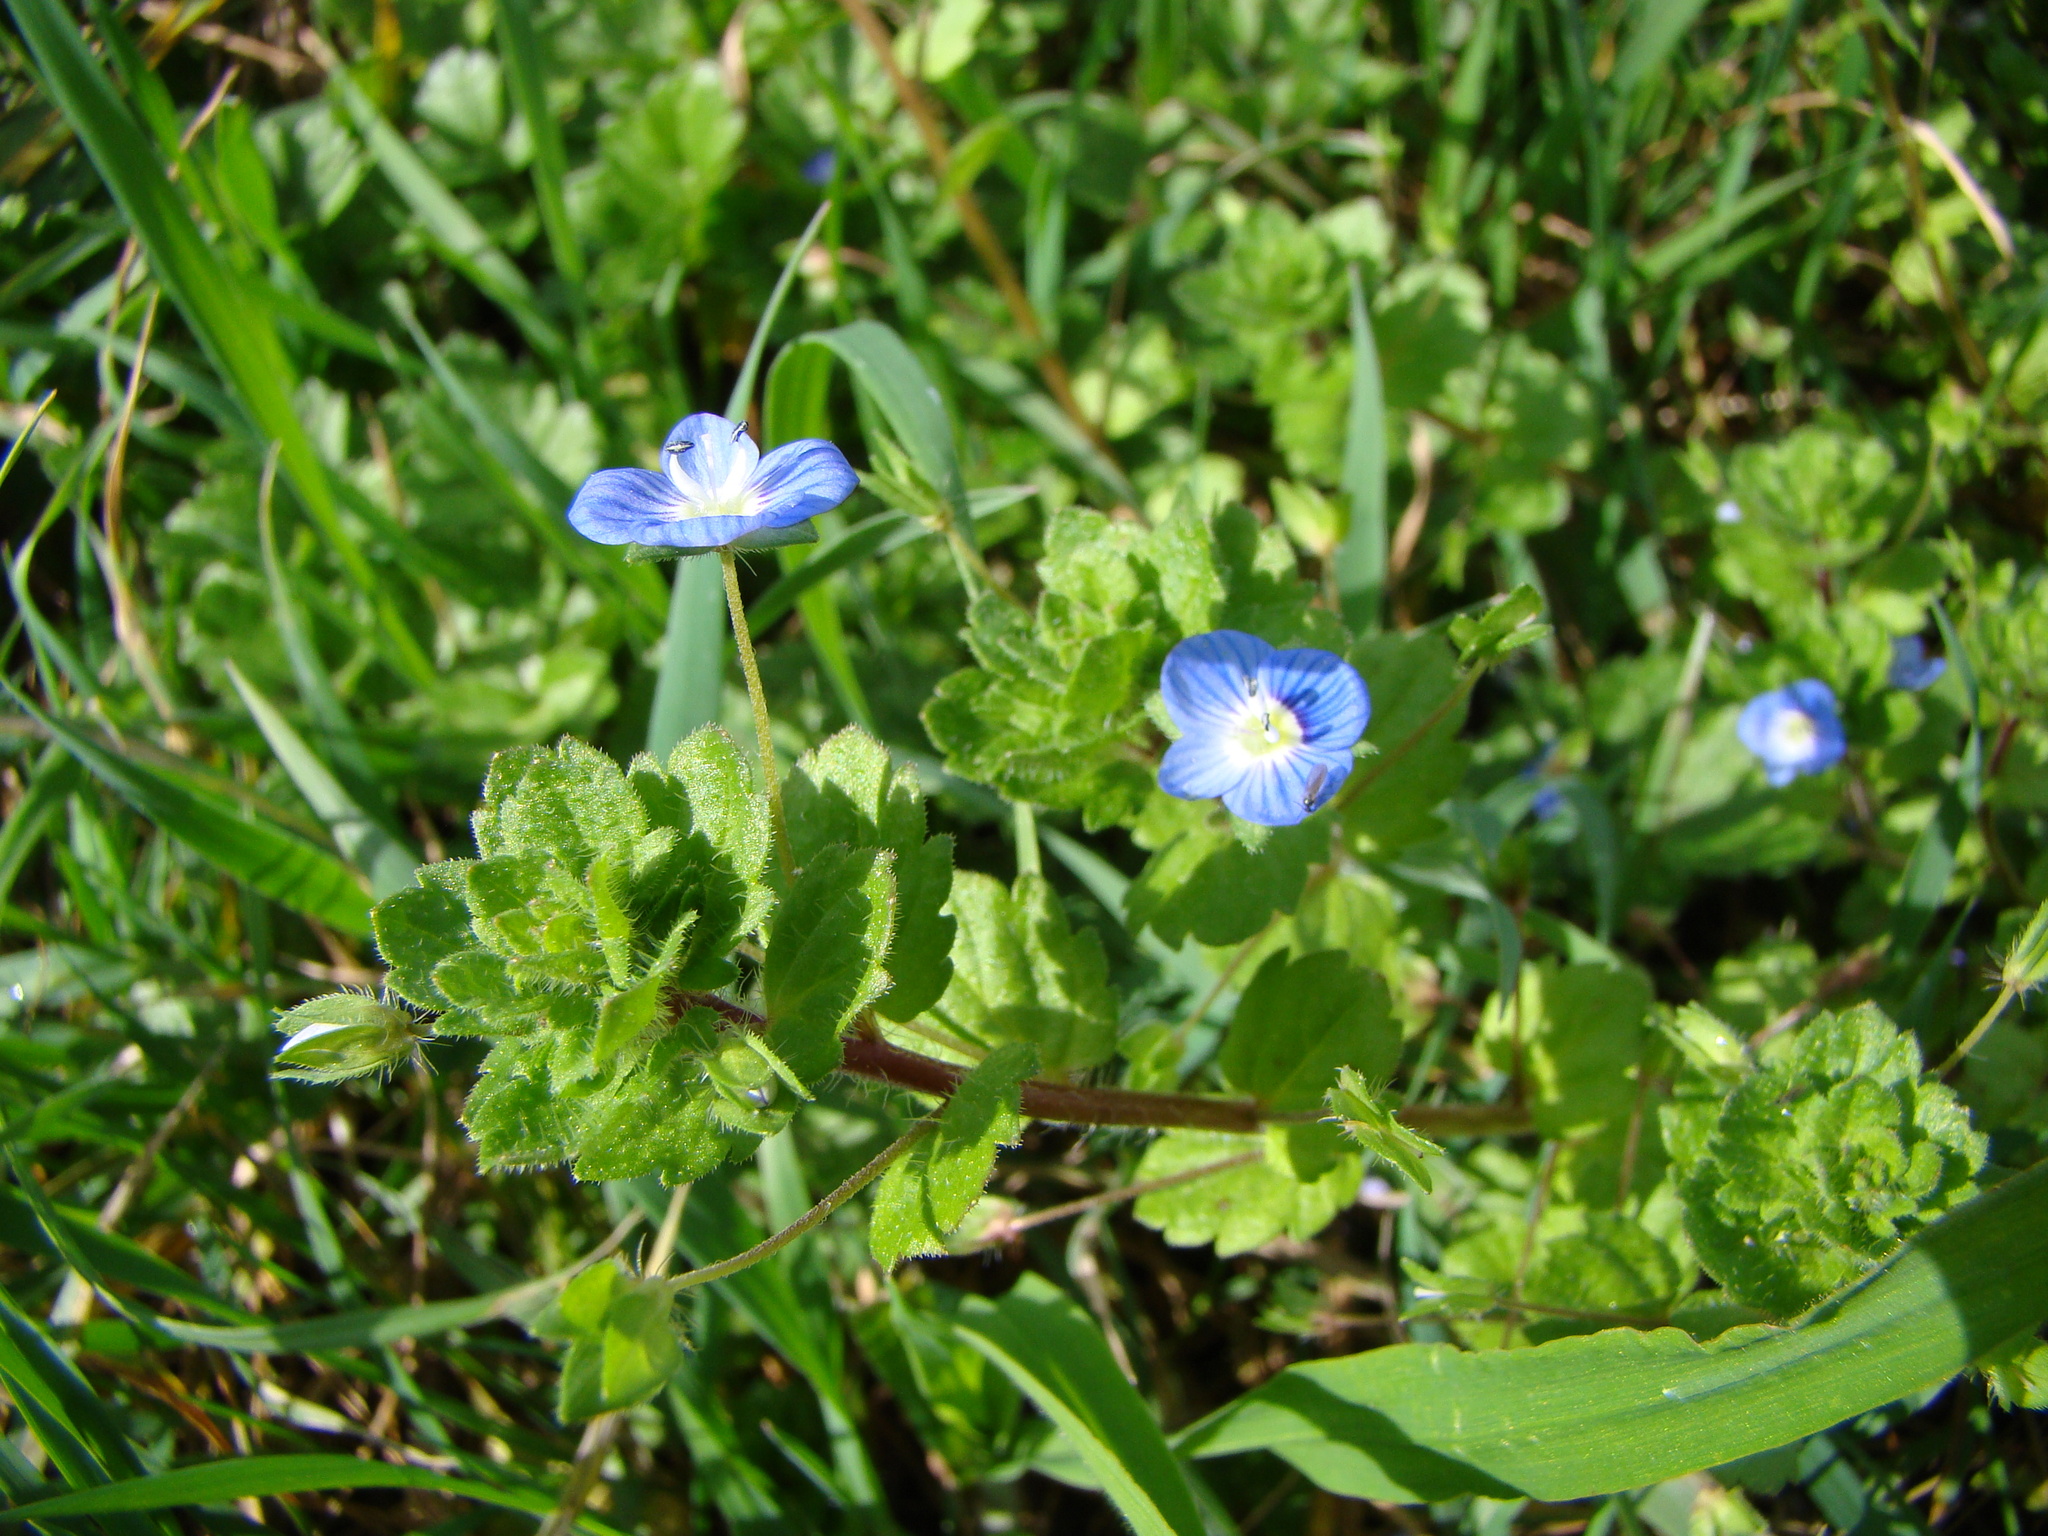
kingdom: Plantae
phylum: Tracheophyta
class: Magnoliopsida
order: Lamiales
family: Plantaginaceae
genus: Veronica
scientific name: Veronica persica
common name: Common field-speedwell
